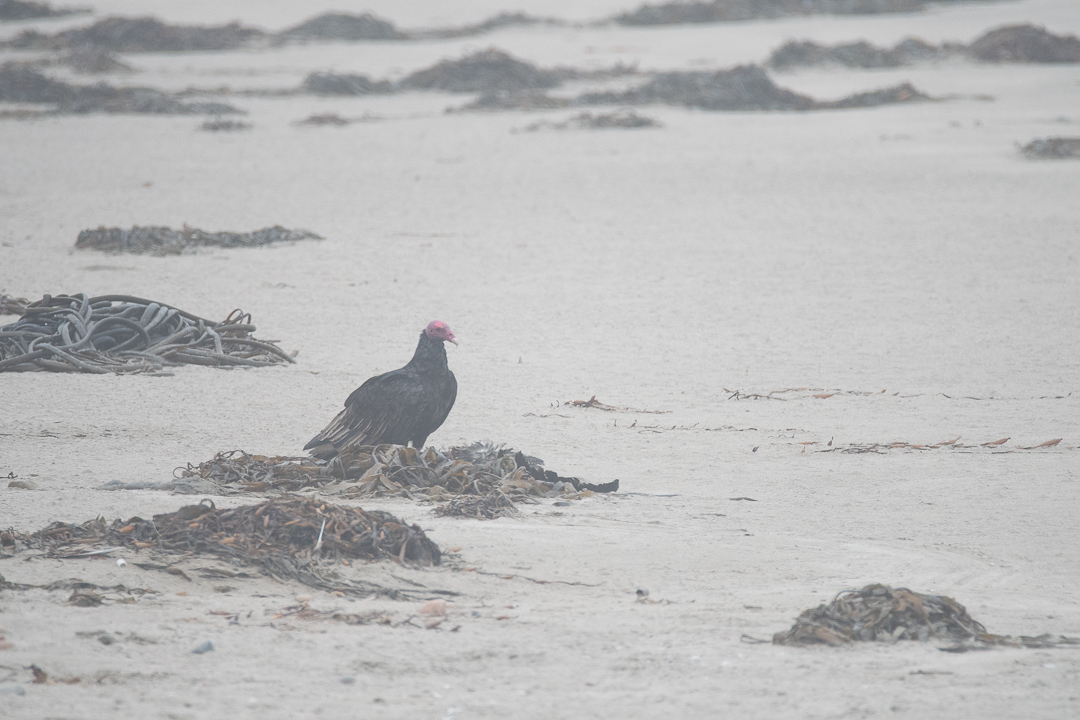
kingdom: Animalia
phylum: Chordata
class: Aves
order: Accipitriformes
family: Cathartidae
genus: Cathartes
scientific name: Cathartes aura
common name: Turkey vulture
